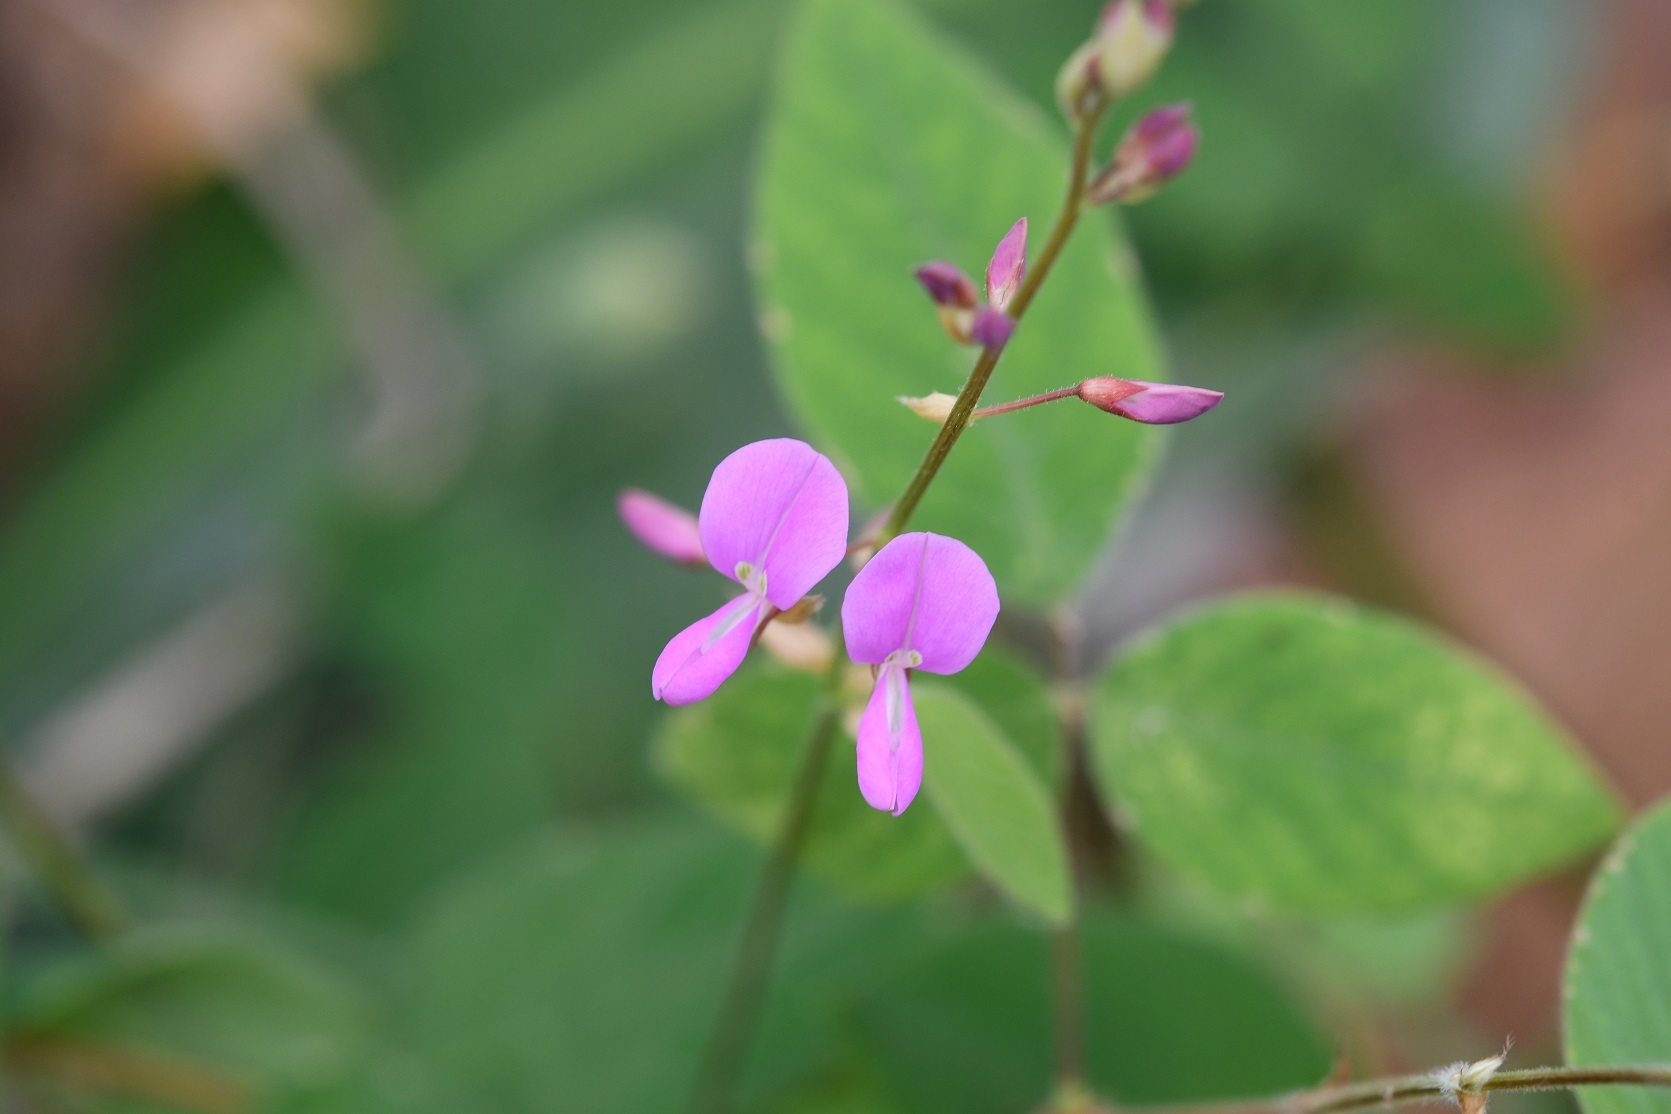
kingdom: Plantae
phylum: Tracheophyta
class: Magnoliopsida
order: Fabales
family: Fabaceae
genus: Desmodium
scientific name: Desmodium pringlei
